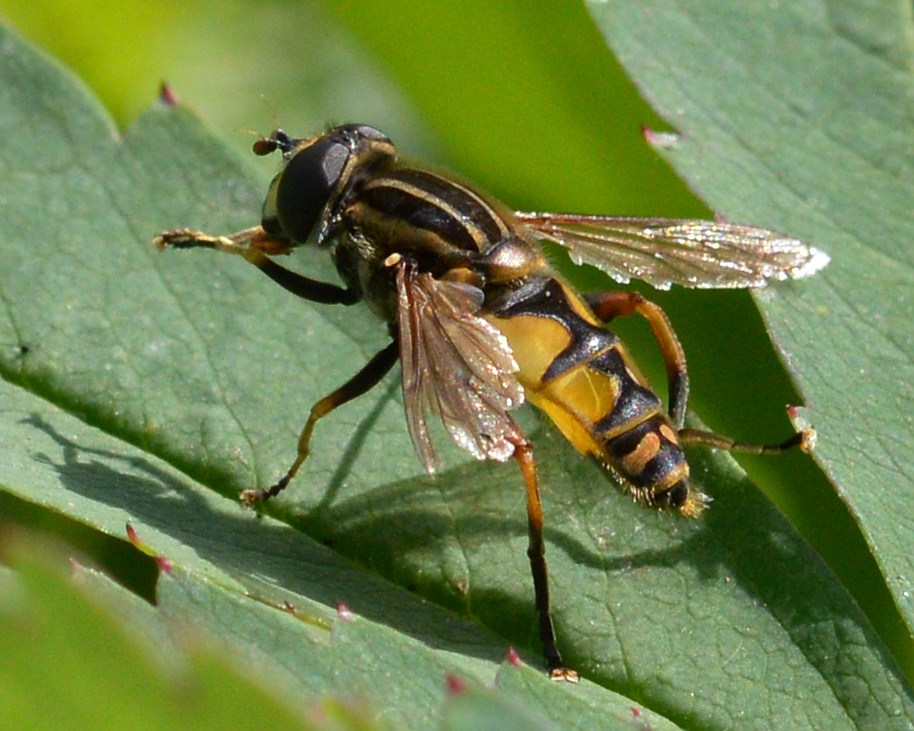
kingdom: Animalia
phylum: Arthropoda
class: Insecta
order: Diptera
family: Syrphidae
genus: Helophilus
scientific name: Helophilus pendulus
